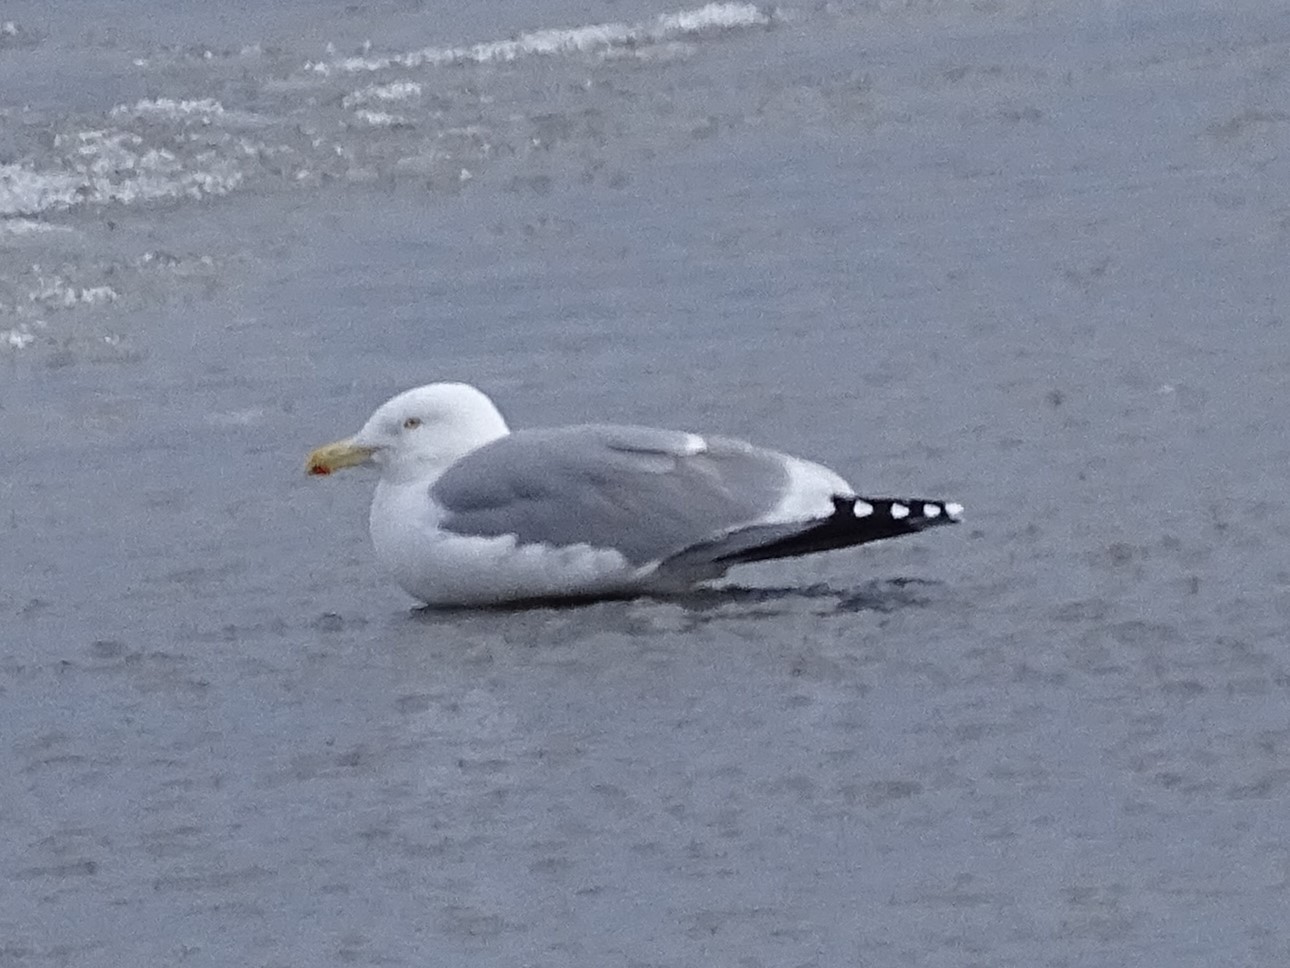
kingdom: Animalia
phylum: Chordata
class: Aves
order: Charadriiformes
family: Laridae
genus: Larus
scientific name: Larus argentatus
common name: Herring gull
